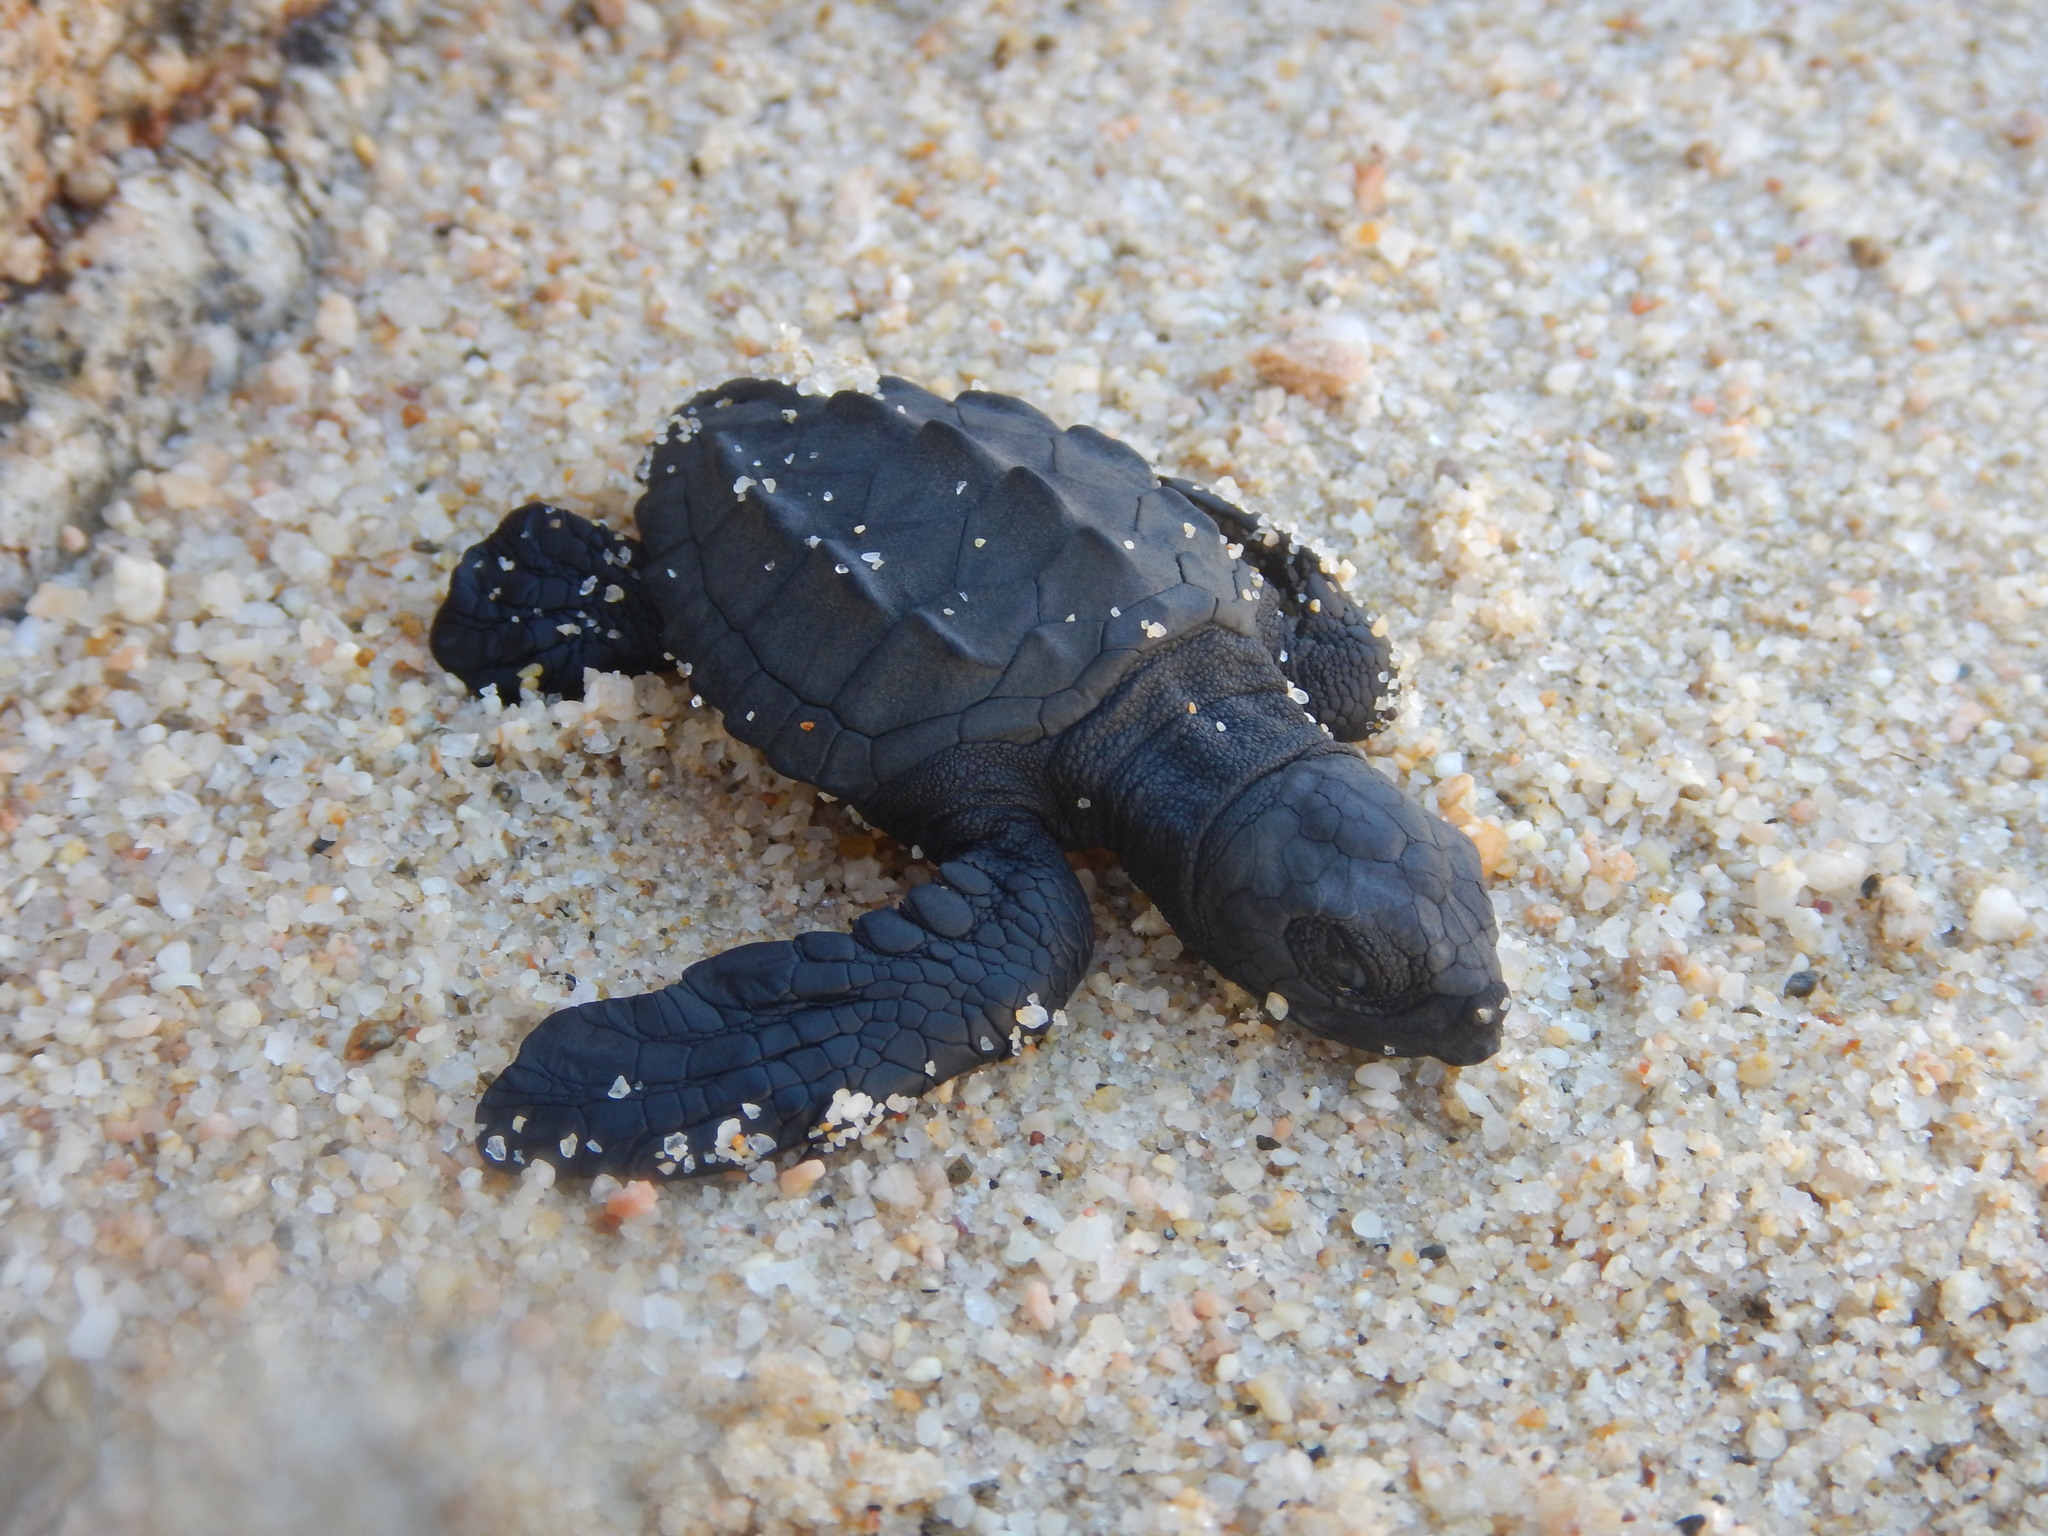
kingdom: Animalia
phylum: Chordata
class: Testudines
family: Cheloniidae
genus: Lepidochelys
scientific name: Lepidochelys olivacea
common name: Olive ridley
